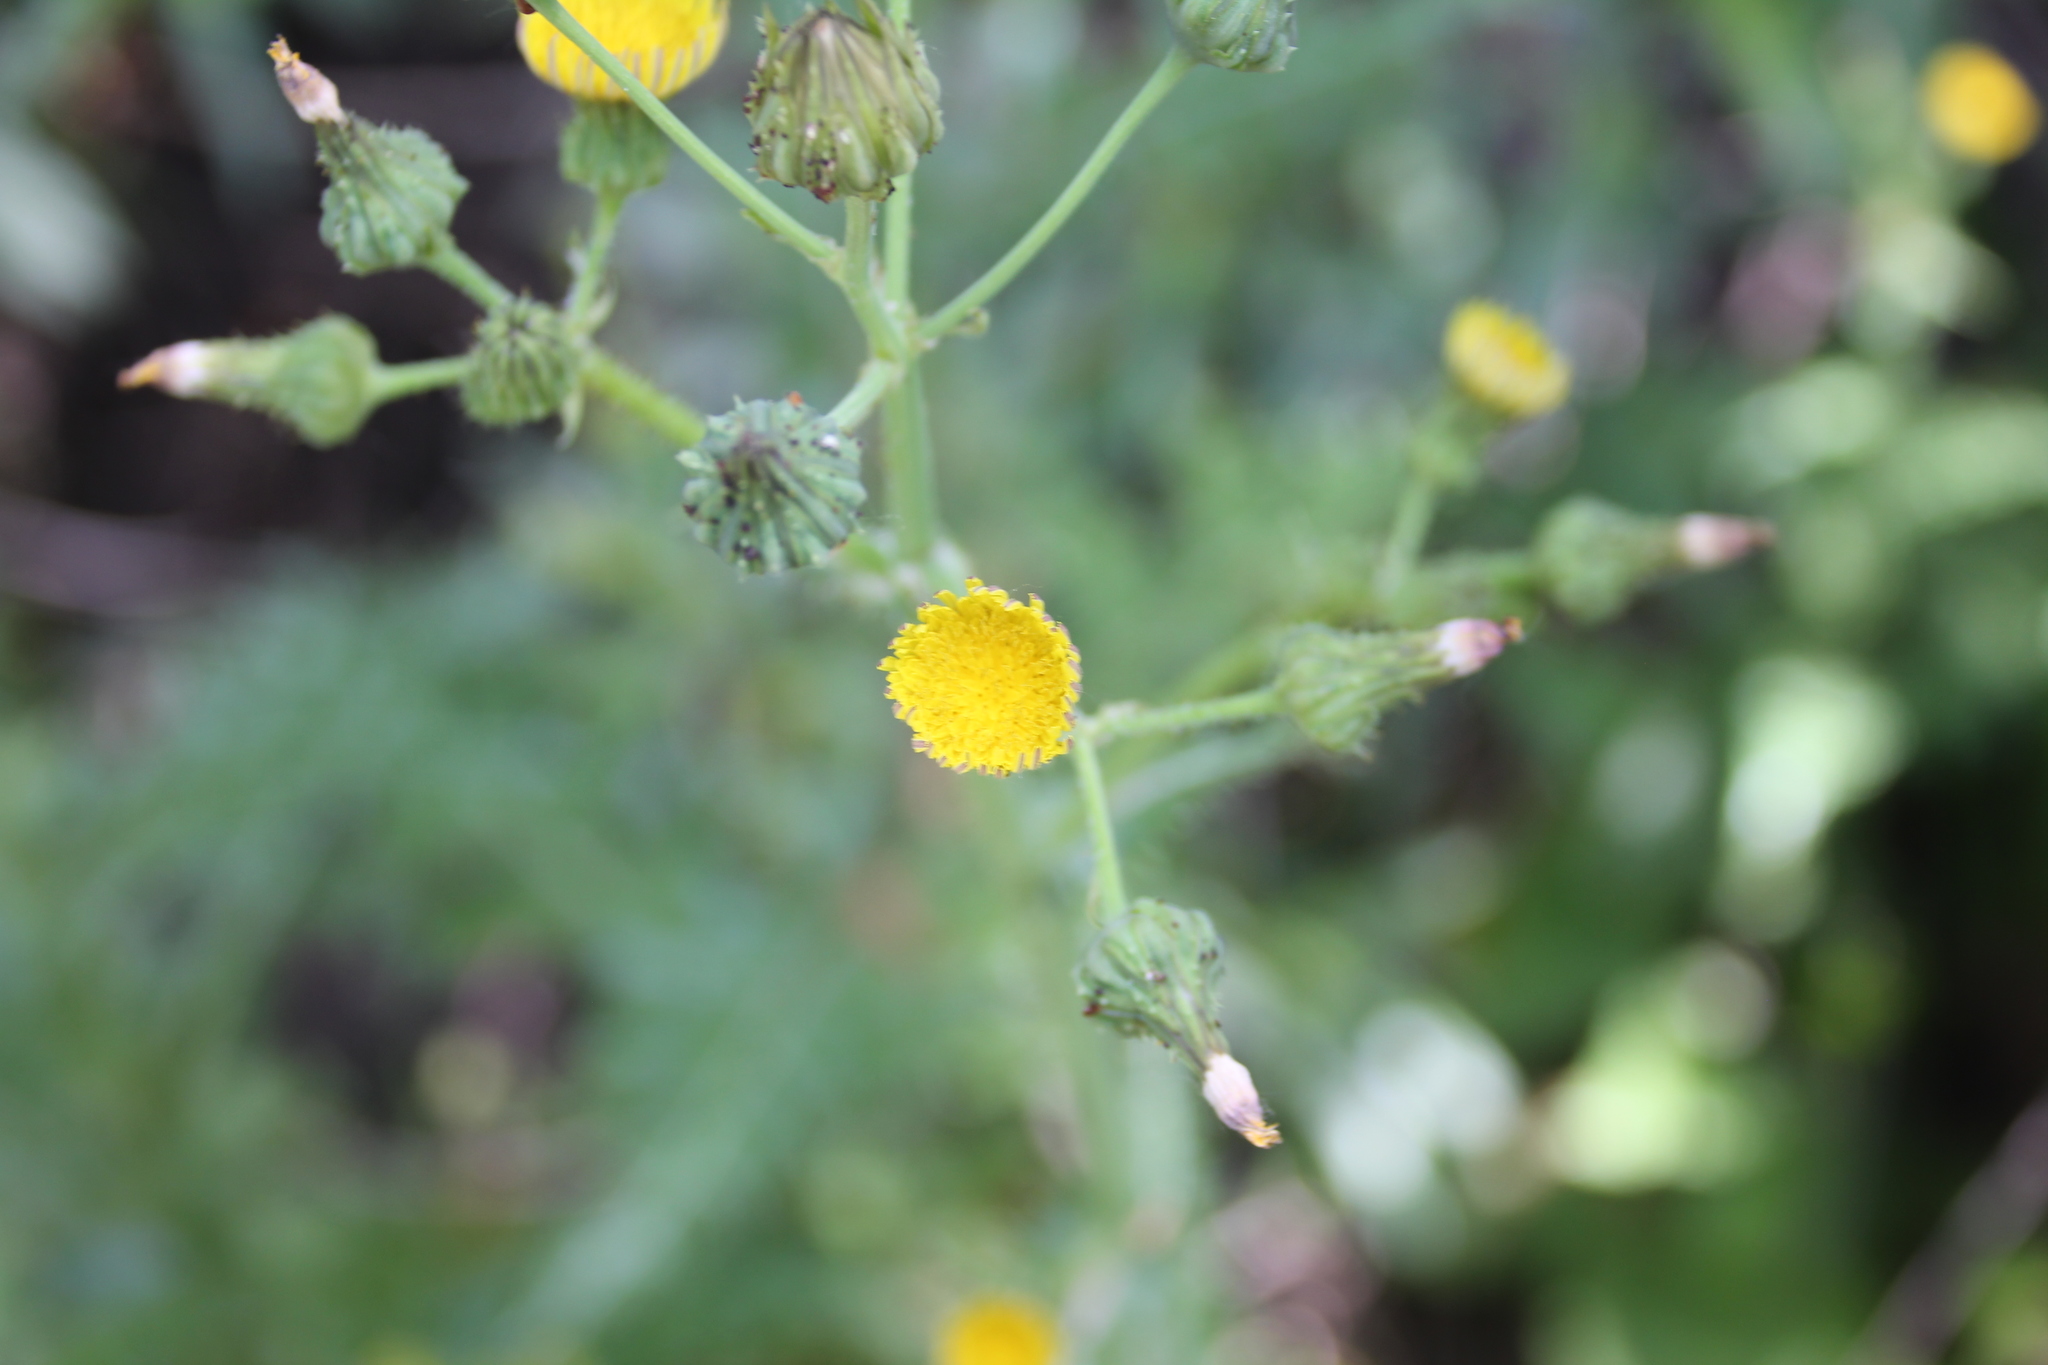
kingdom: Plantae
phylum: Tracheophyta
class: Magnoliopsida
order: Asterales
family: Asteraceae
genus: Sonchus
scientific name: Sonchus asper
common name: Prickly sow-thistle
